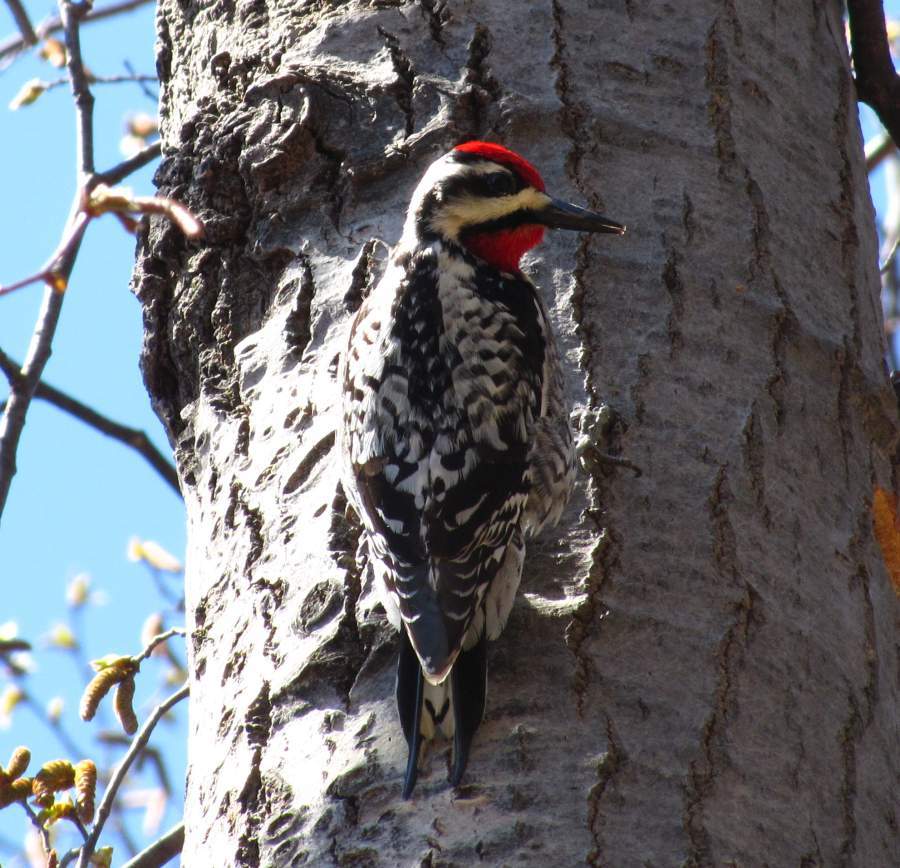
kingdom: Animalia
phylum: Chordata
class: Aves
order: Piciformes
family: Picidae
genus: Sphyrapicus
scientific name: Sphyrapicus varius
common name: Yellow-bellied sapsucker
